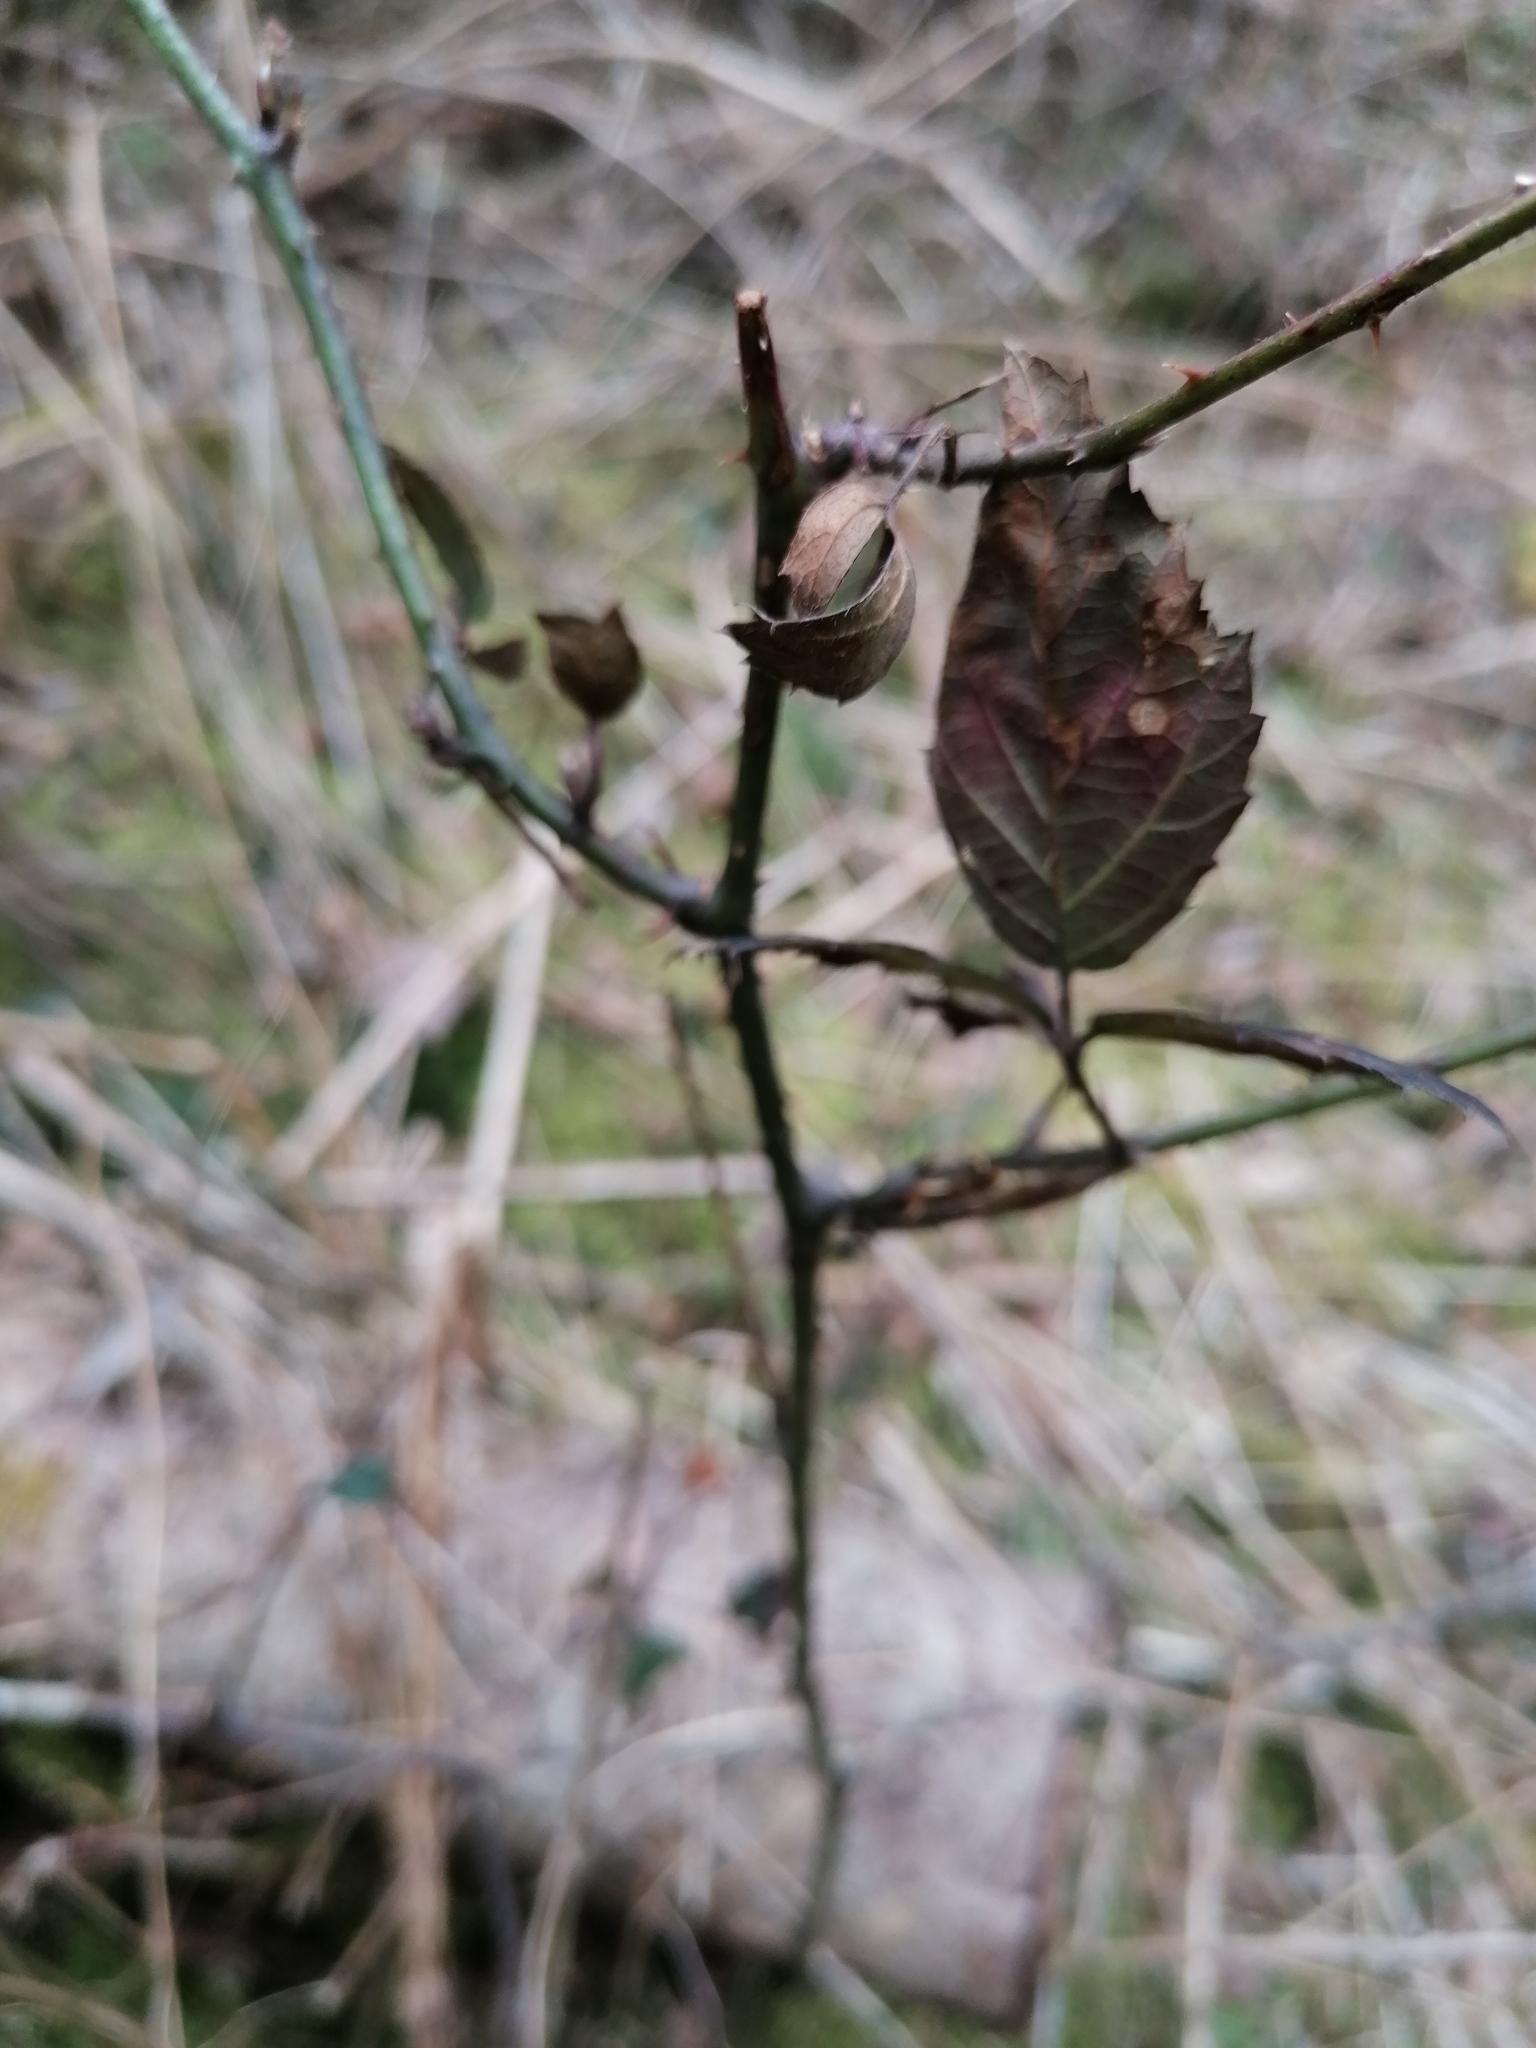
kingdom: Animalia
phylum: Arthropoda
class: Insecta
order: Diptera
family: Cecidomyiidae
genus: Lasioptera
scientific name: Lasioptera rubi
